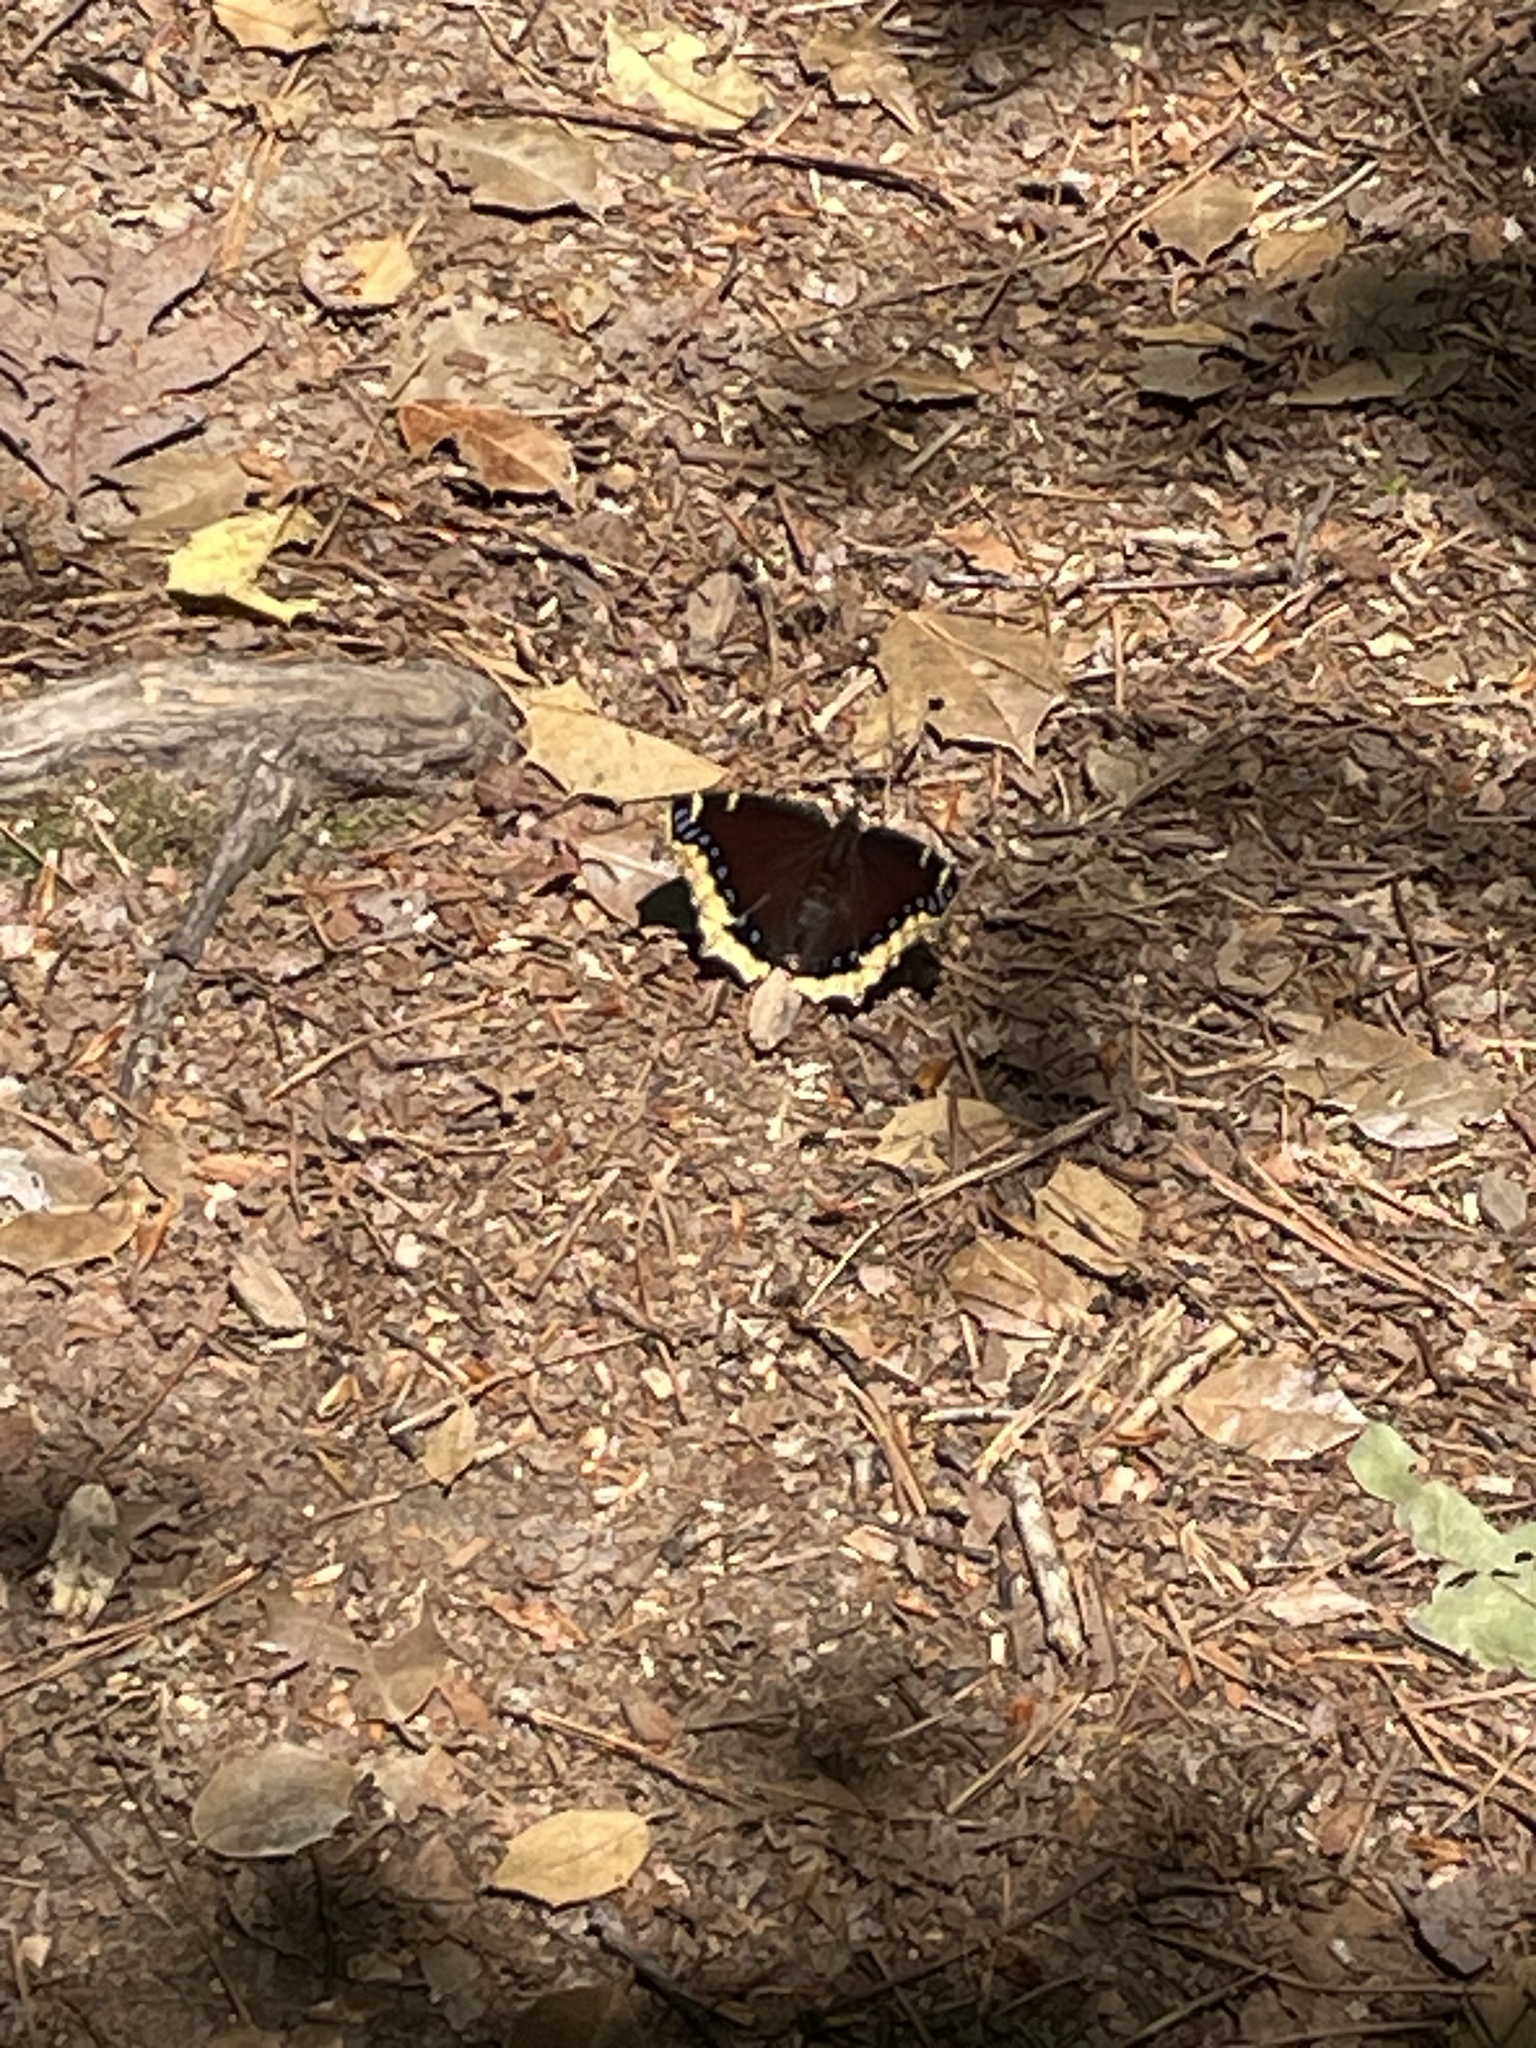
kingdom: Animalia
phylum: Arthropoda
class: Insecta
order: Lepidoptera
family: Nymphalidae
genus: Nymphalis
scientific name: Nymphalis antiopa
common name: Camberwell beauty
